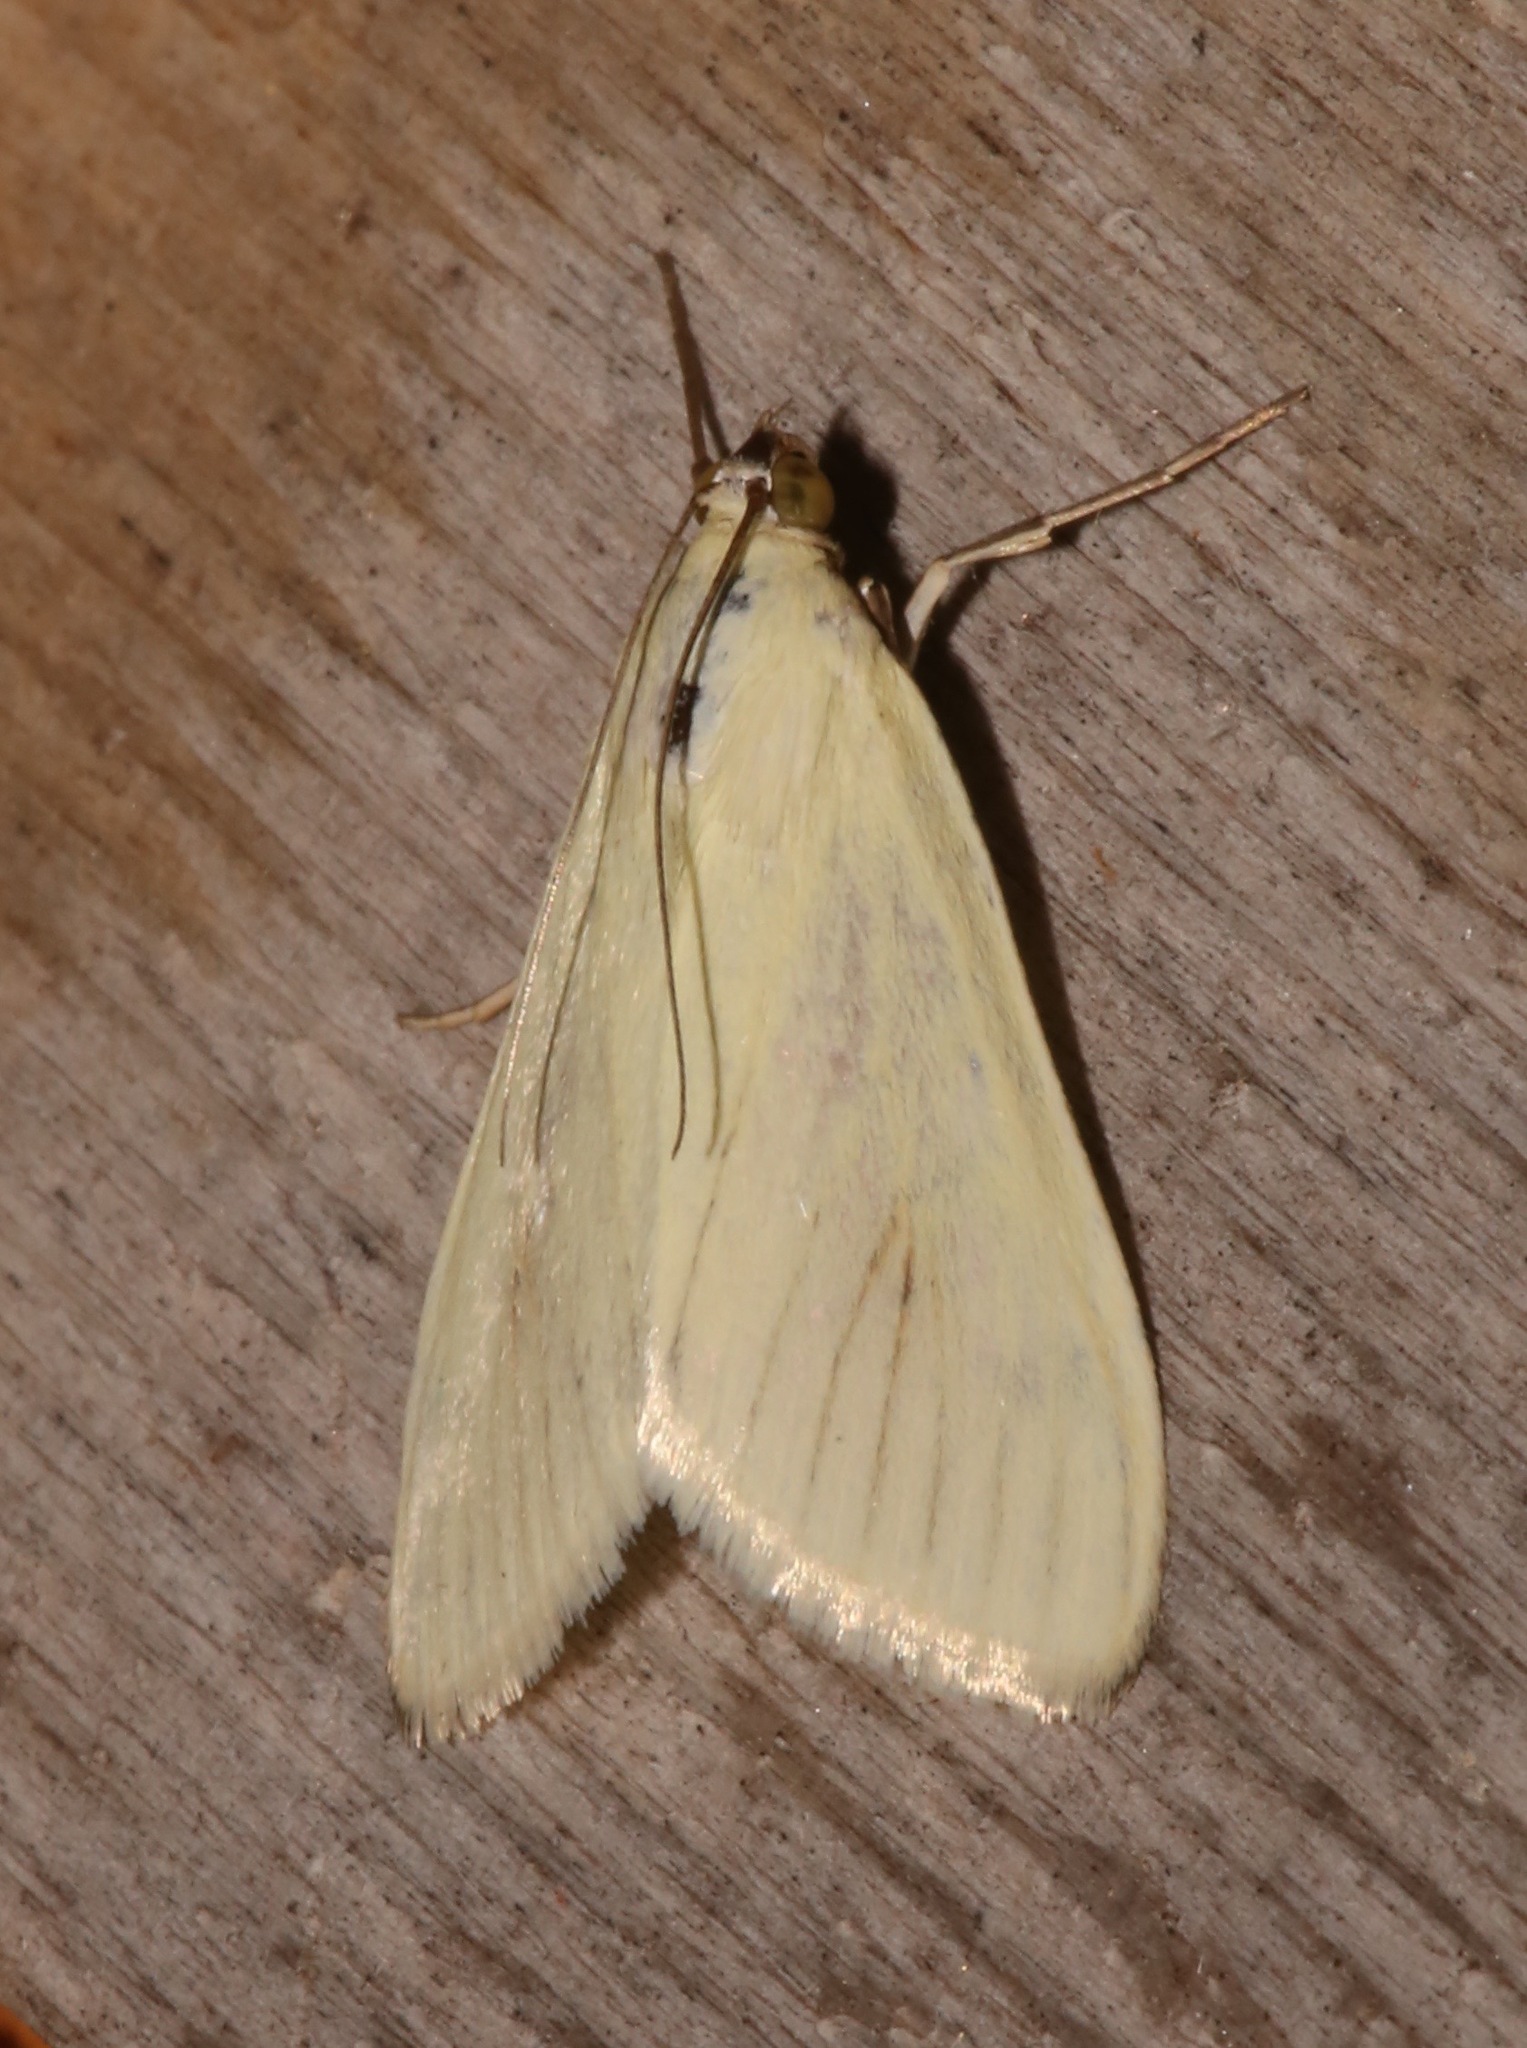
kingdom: Animalia
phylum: Arthropoda
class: Insecta
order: Lepidoptera
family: Crambidae
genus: Sitochroa
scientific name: Sitochroa palealis
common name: Greenish-yellow sitochroa moth
